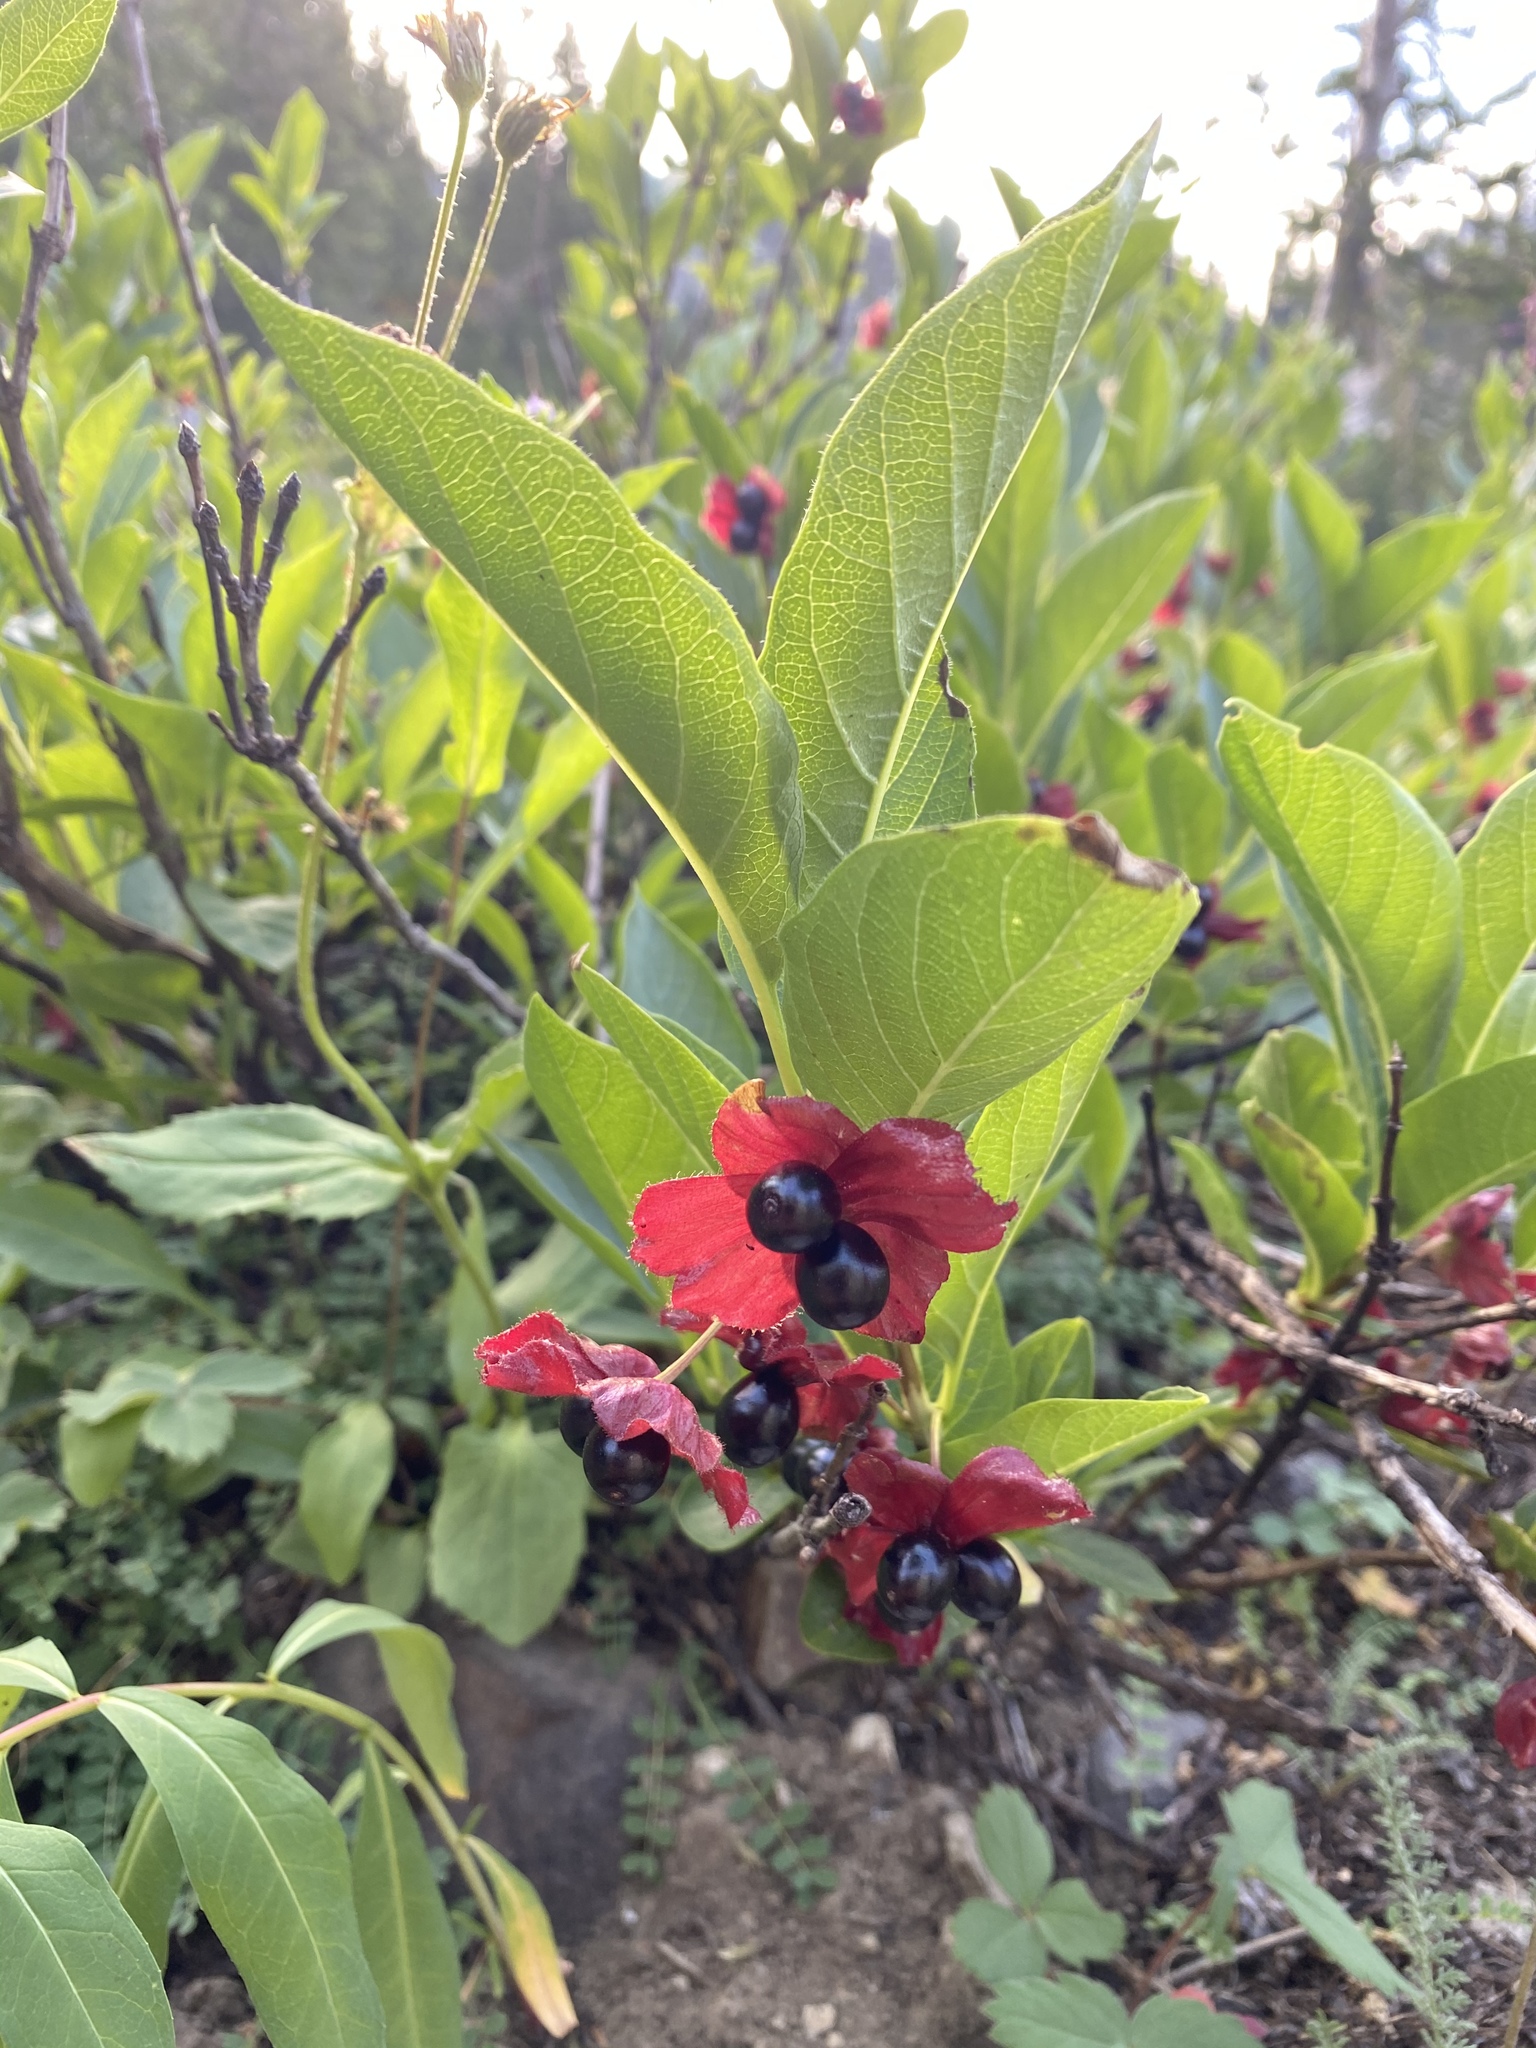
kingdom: Plantae
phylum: Tracheophyta
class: Magnoliopsida
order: Dipsacales
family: Caprifoliaceae
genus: Lonicera
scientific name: Lonicera involucrata
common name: Californian honeysuckle
